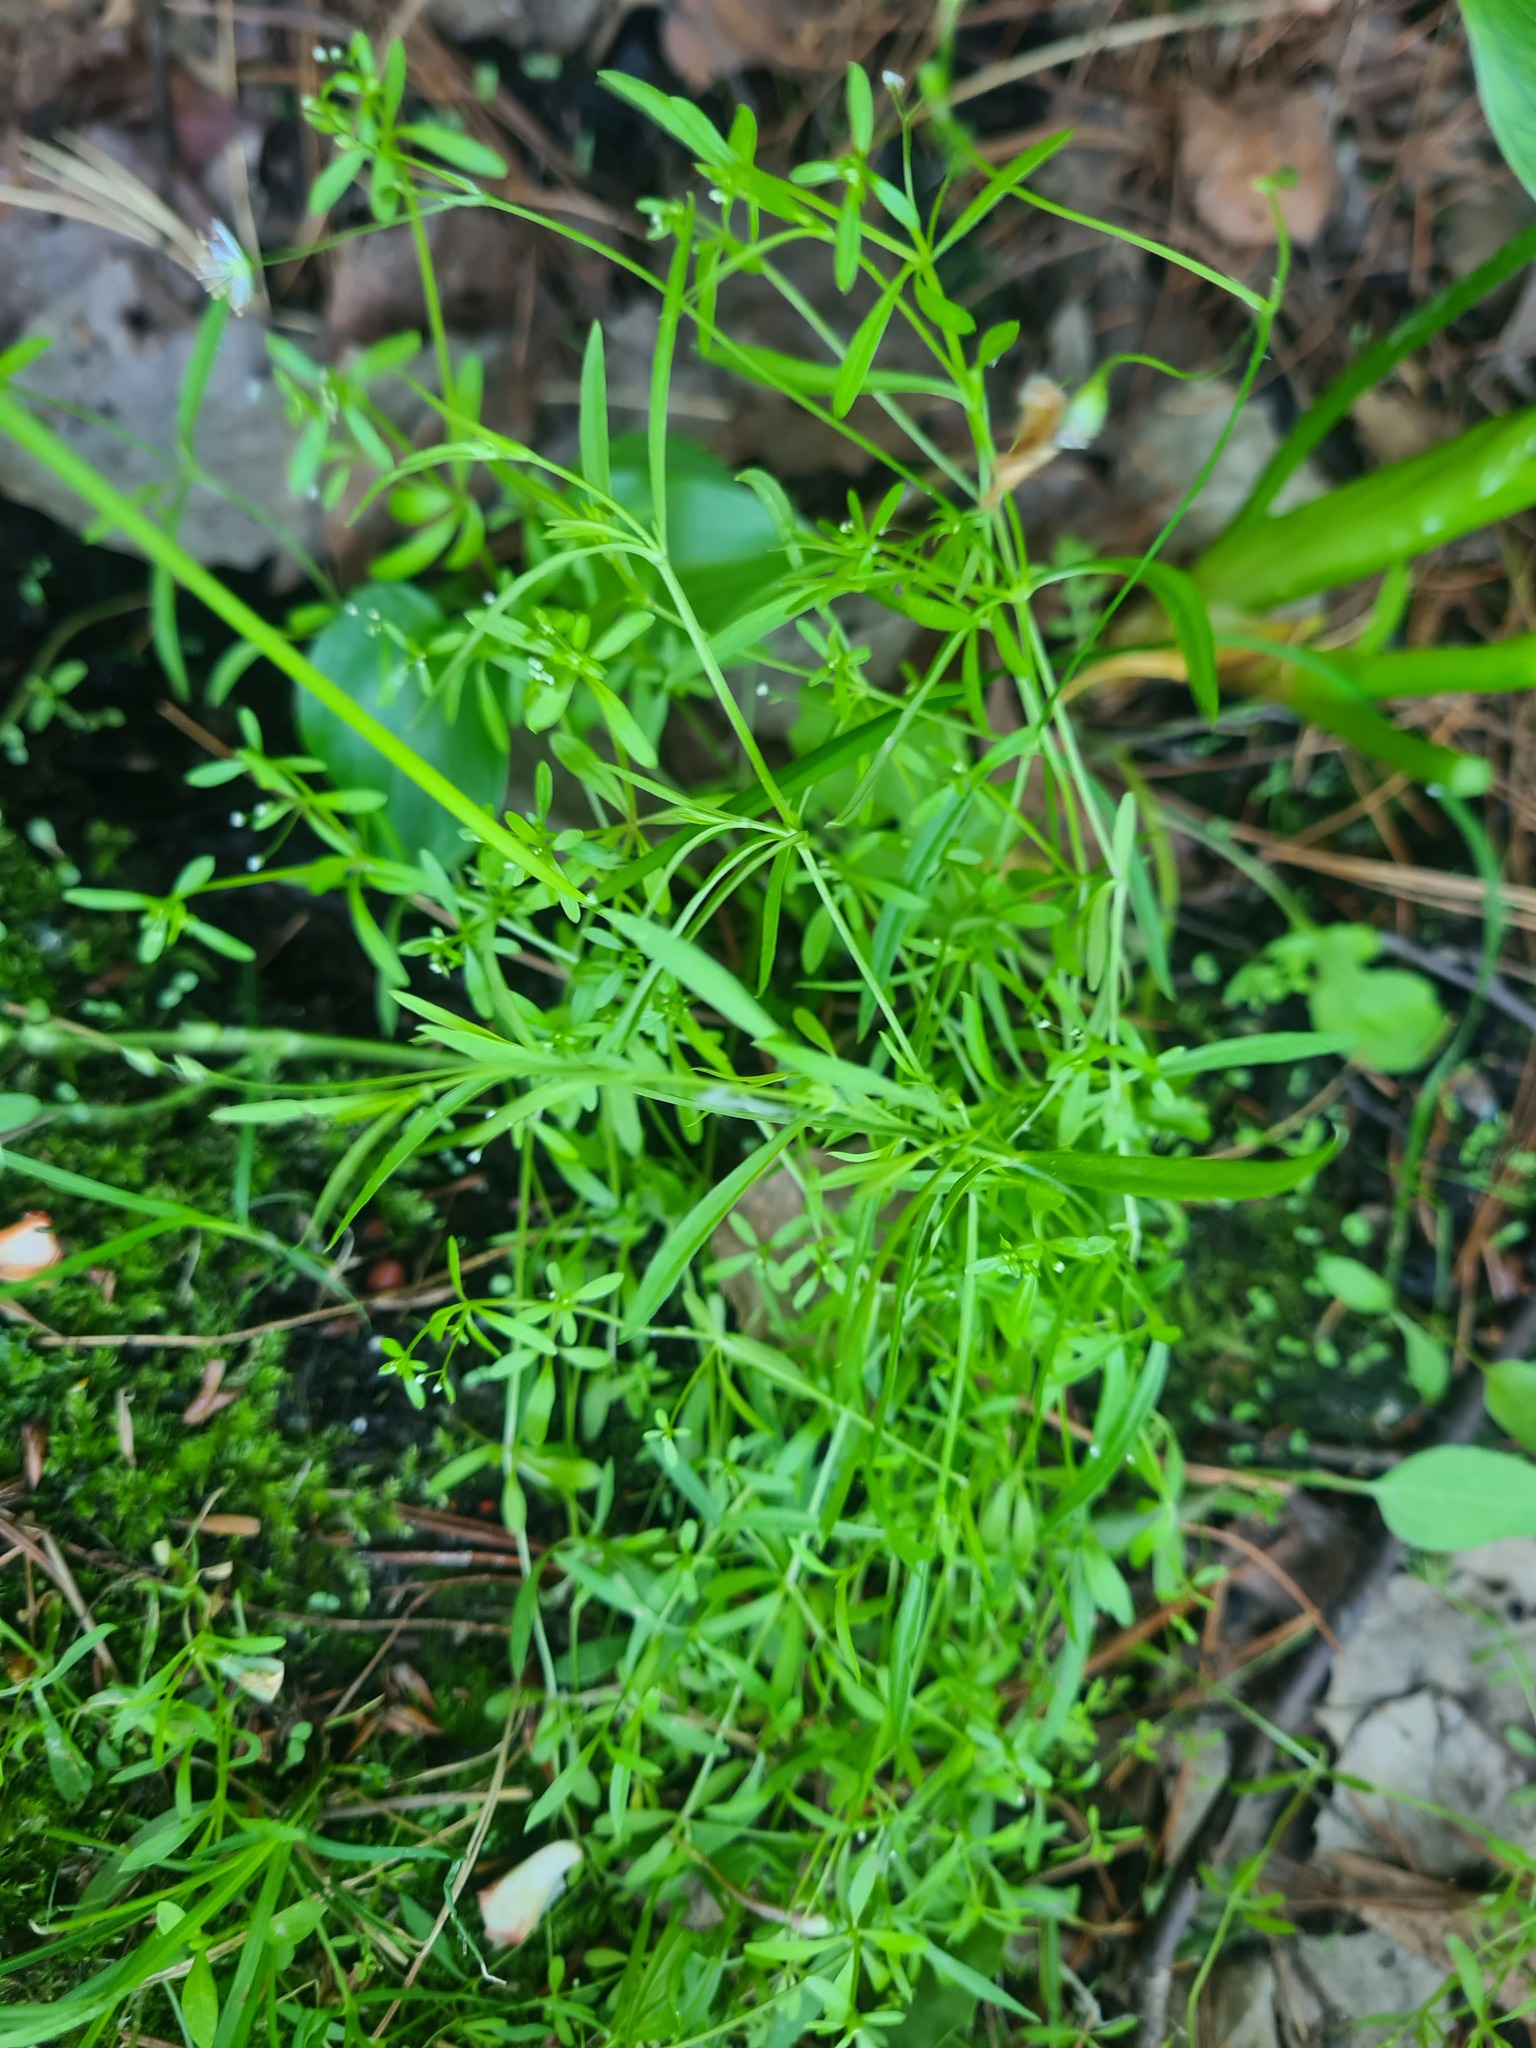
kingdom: Plantae
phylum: Tracheophyta
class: Magnoliopsida
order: Gentianales
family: Rubiaceae
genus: Galium
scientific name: Galium palustre
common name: Common marsh-bedstraw
